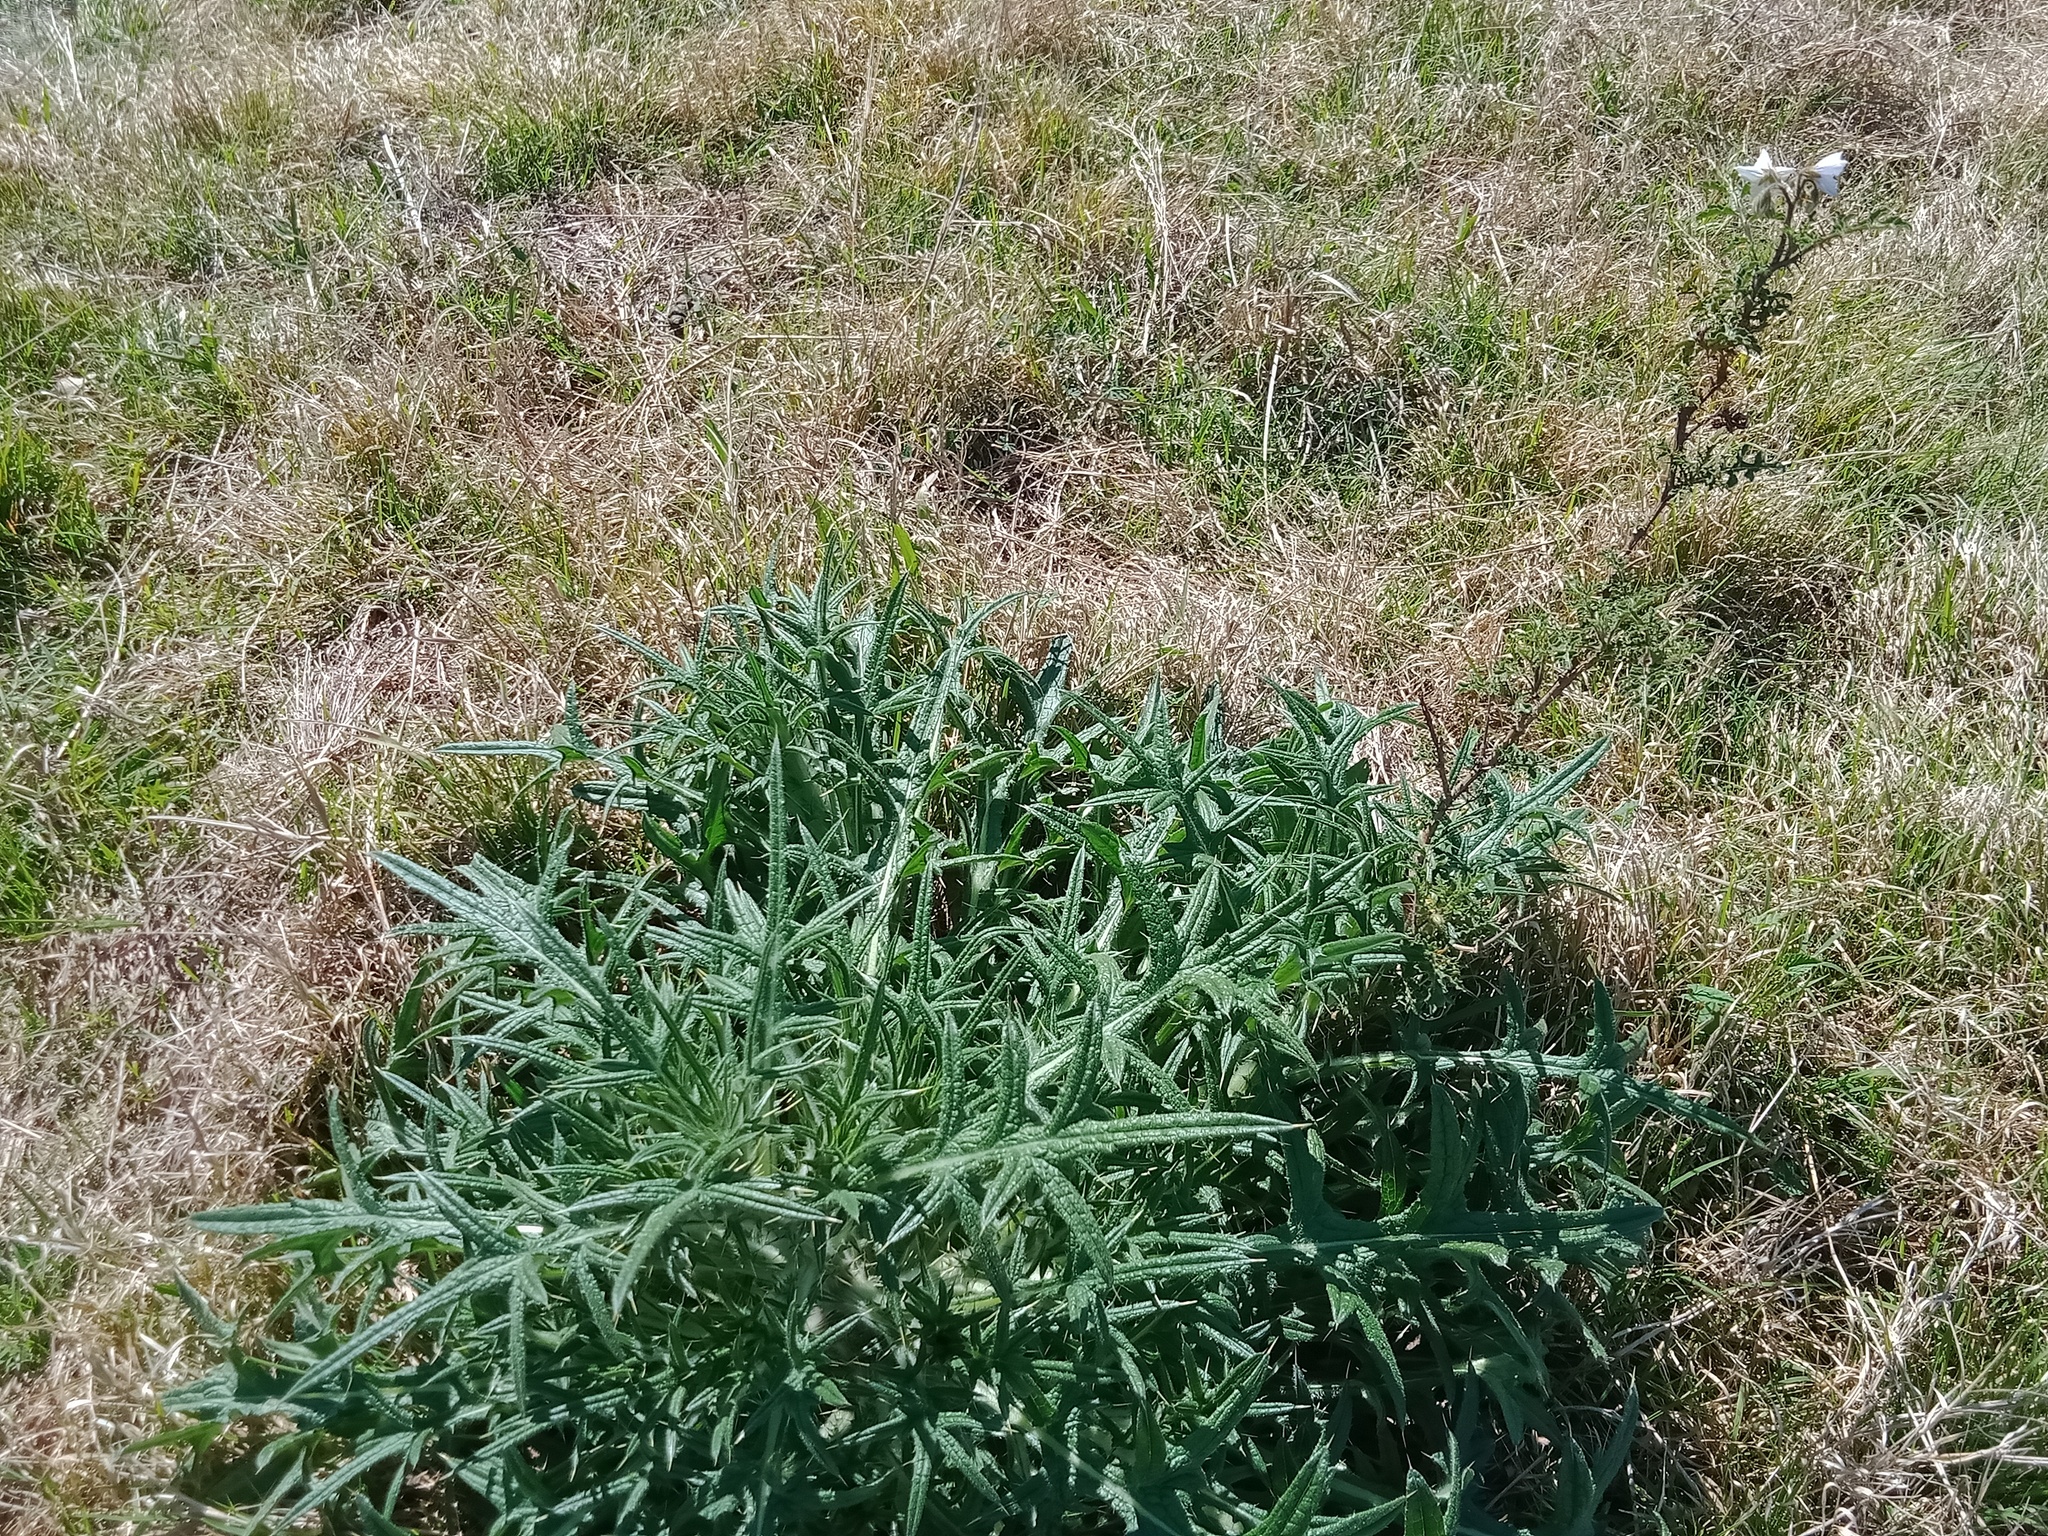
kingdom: Plantae
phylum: Tracheophyta
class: Magnoliopsida
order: Asterales
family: Asteraceae
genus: Cirsium
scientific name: Cirsium vulgare
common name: Bull thistle
